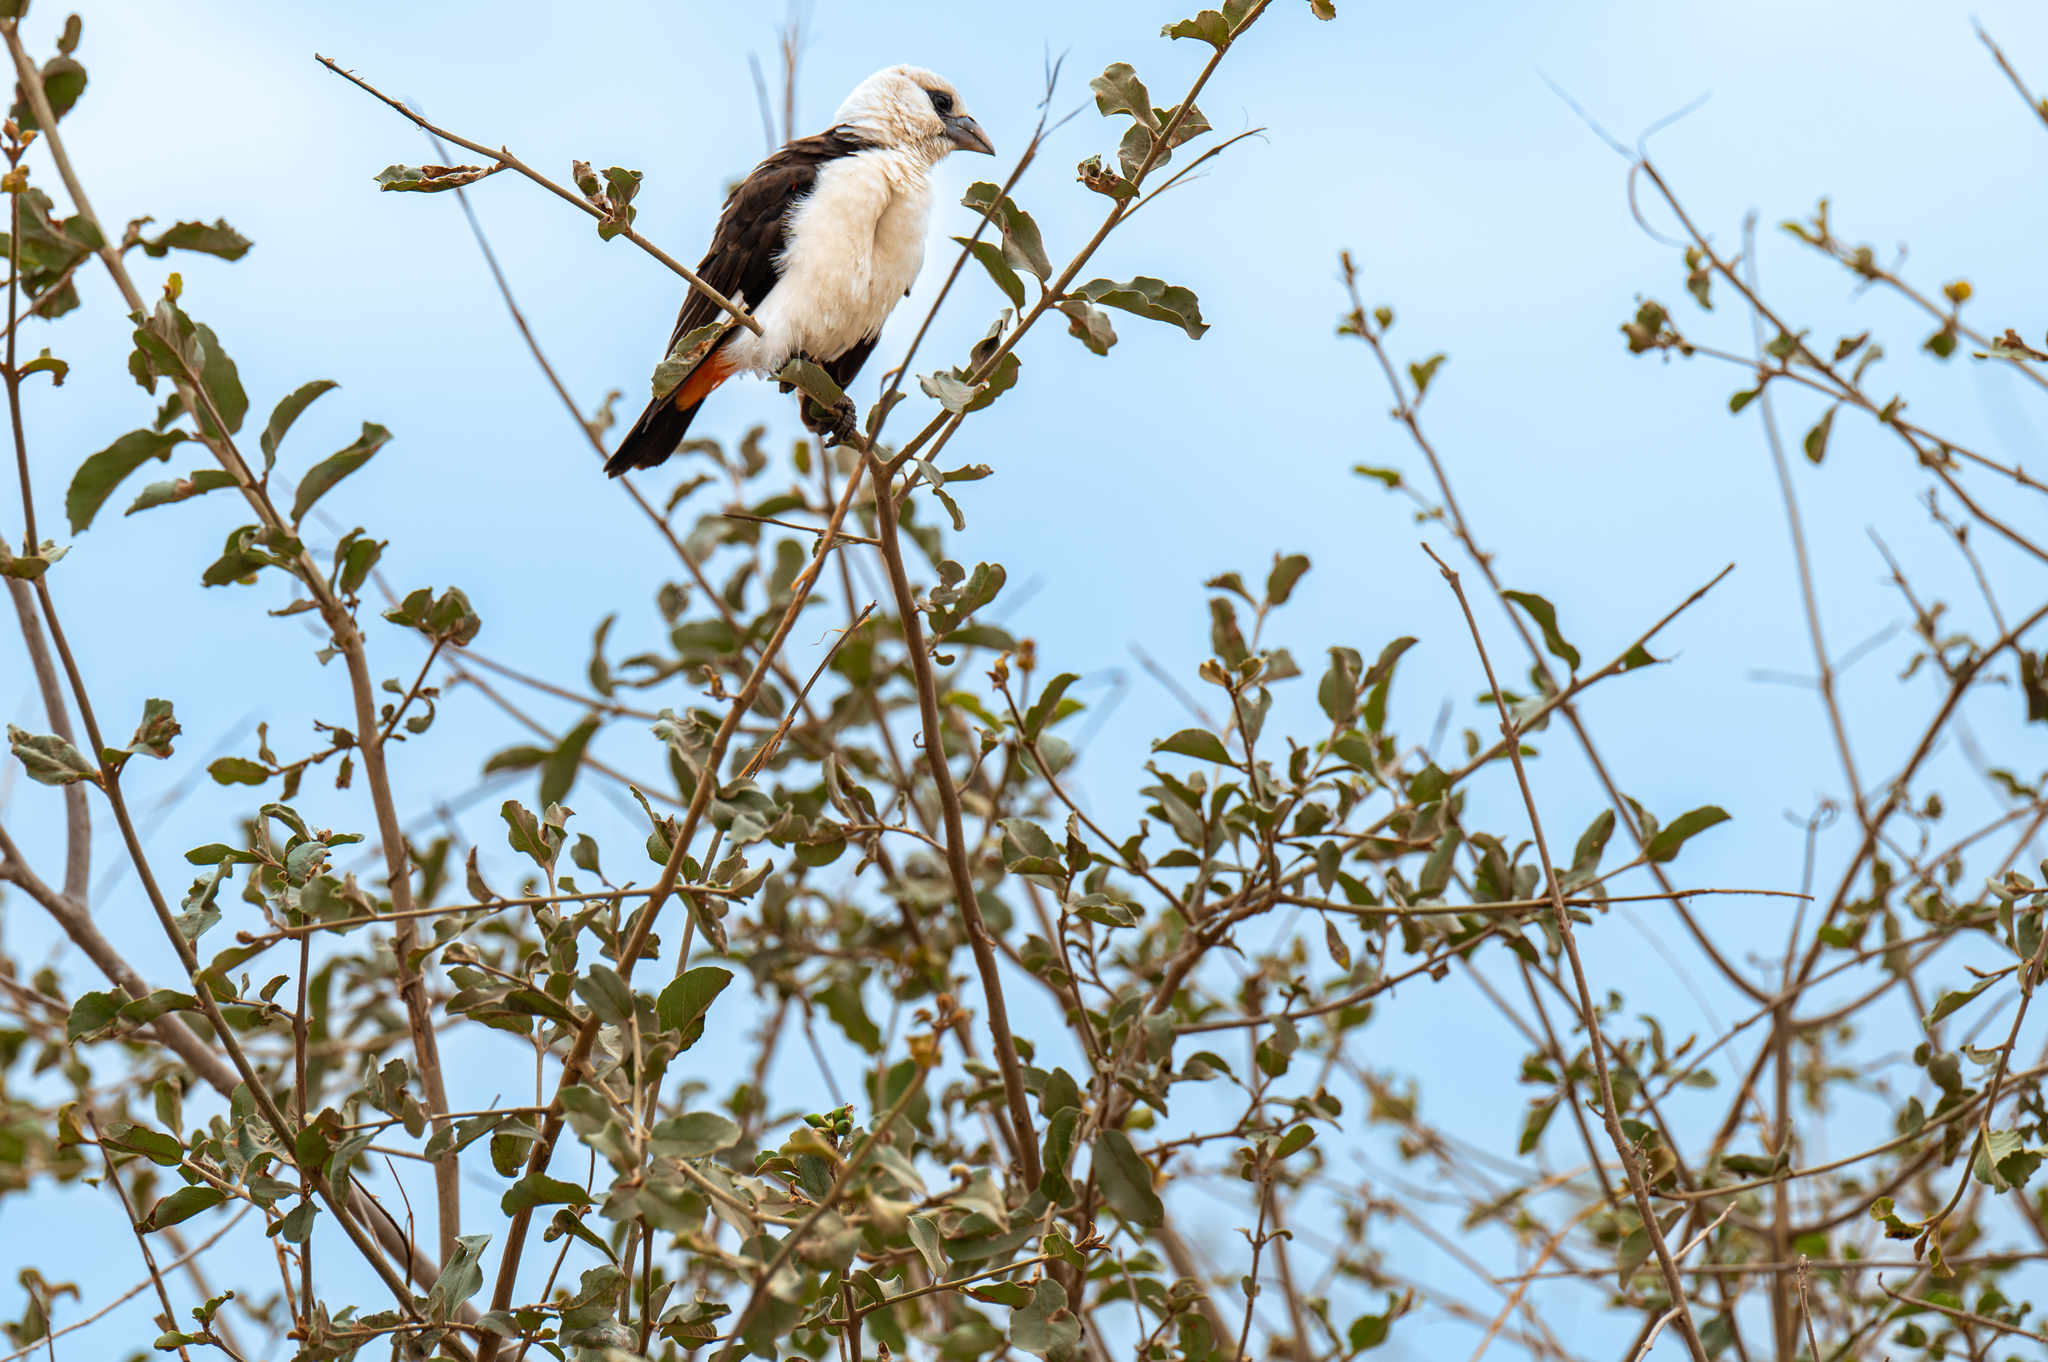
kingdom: Animalia
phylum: Chordata
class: Aves
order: Passeriformes
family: Ploceidae
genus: Dinemellia
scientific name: Dinemellia dinemelli
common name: White-headed buffalo weaver
